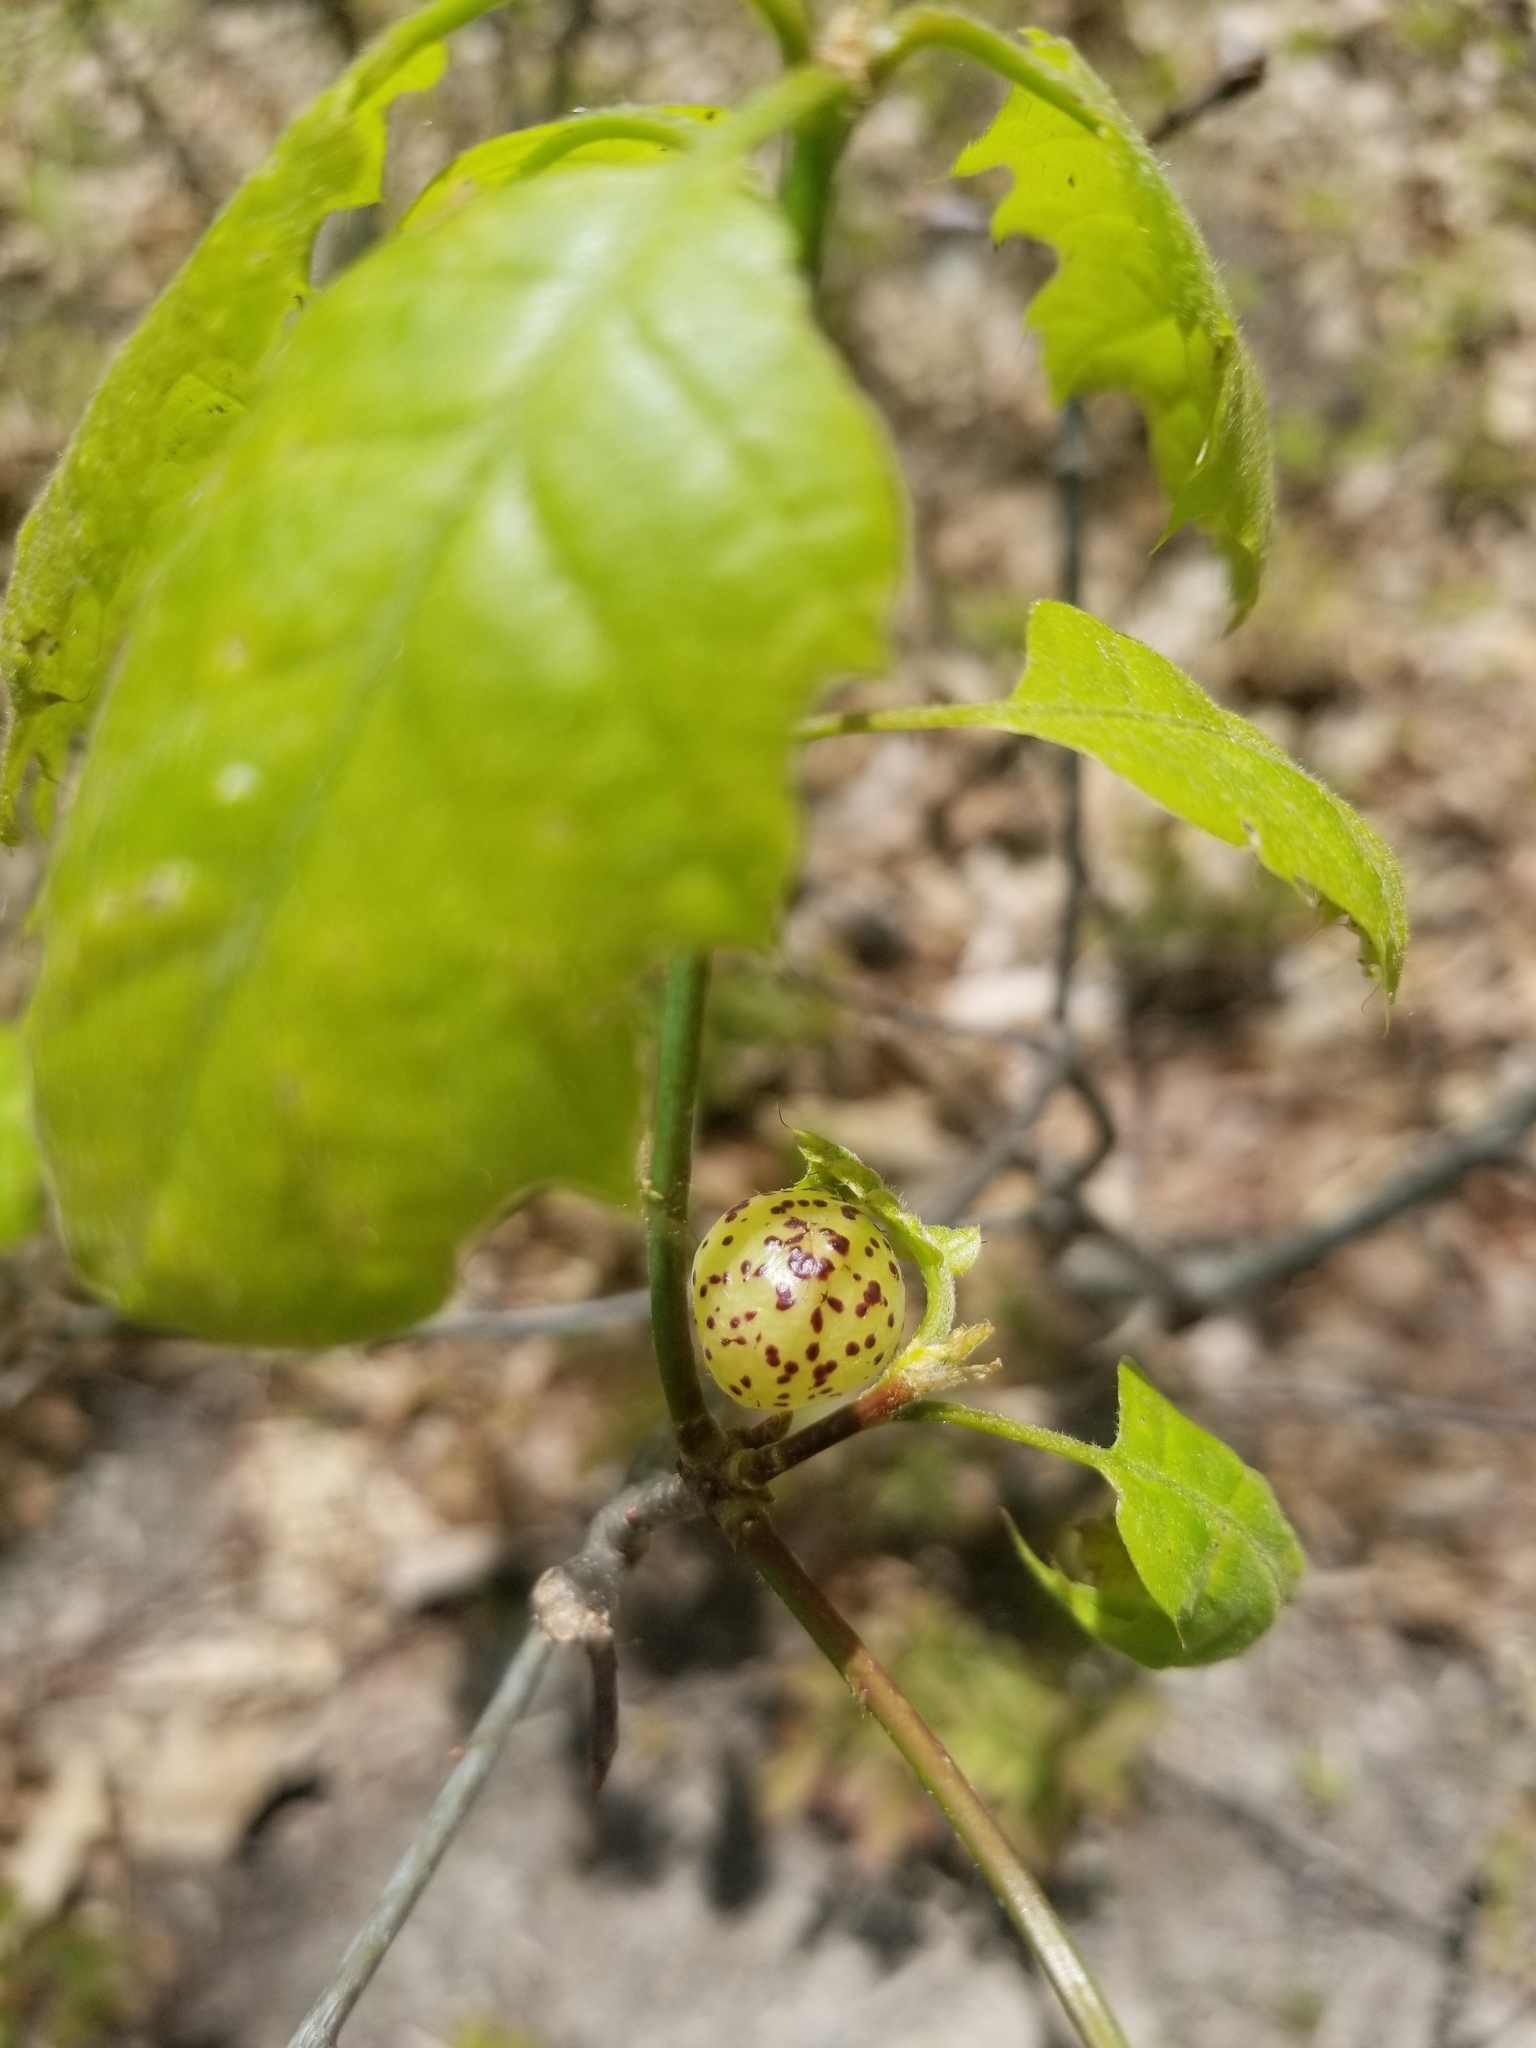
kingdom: Animalia
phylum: Arthropoda
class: Insecta
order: Hymenoptera
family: Cynipidae
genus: Amphibolips
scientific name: Amphibolips
